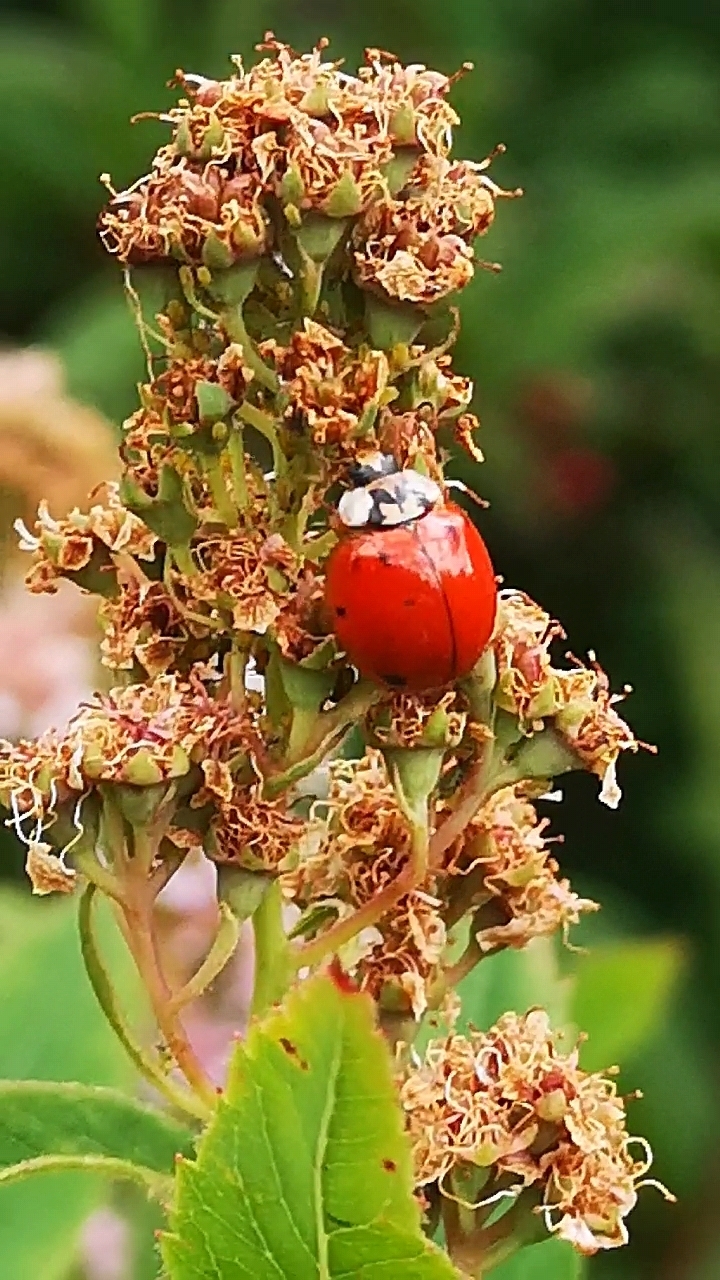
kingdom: Animalia
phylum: Arthropoda
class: Insecta
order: Coleoptera
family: Coccinellidae
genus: Harmonia
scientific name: Harmonia axyridis
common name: Harlequin ladybird
